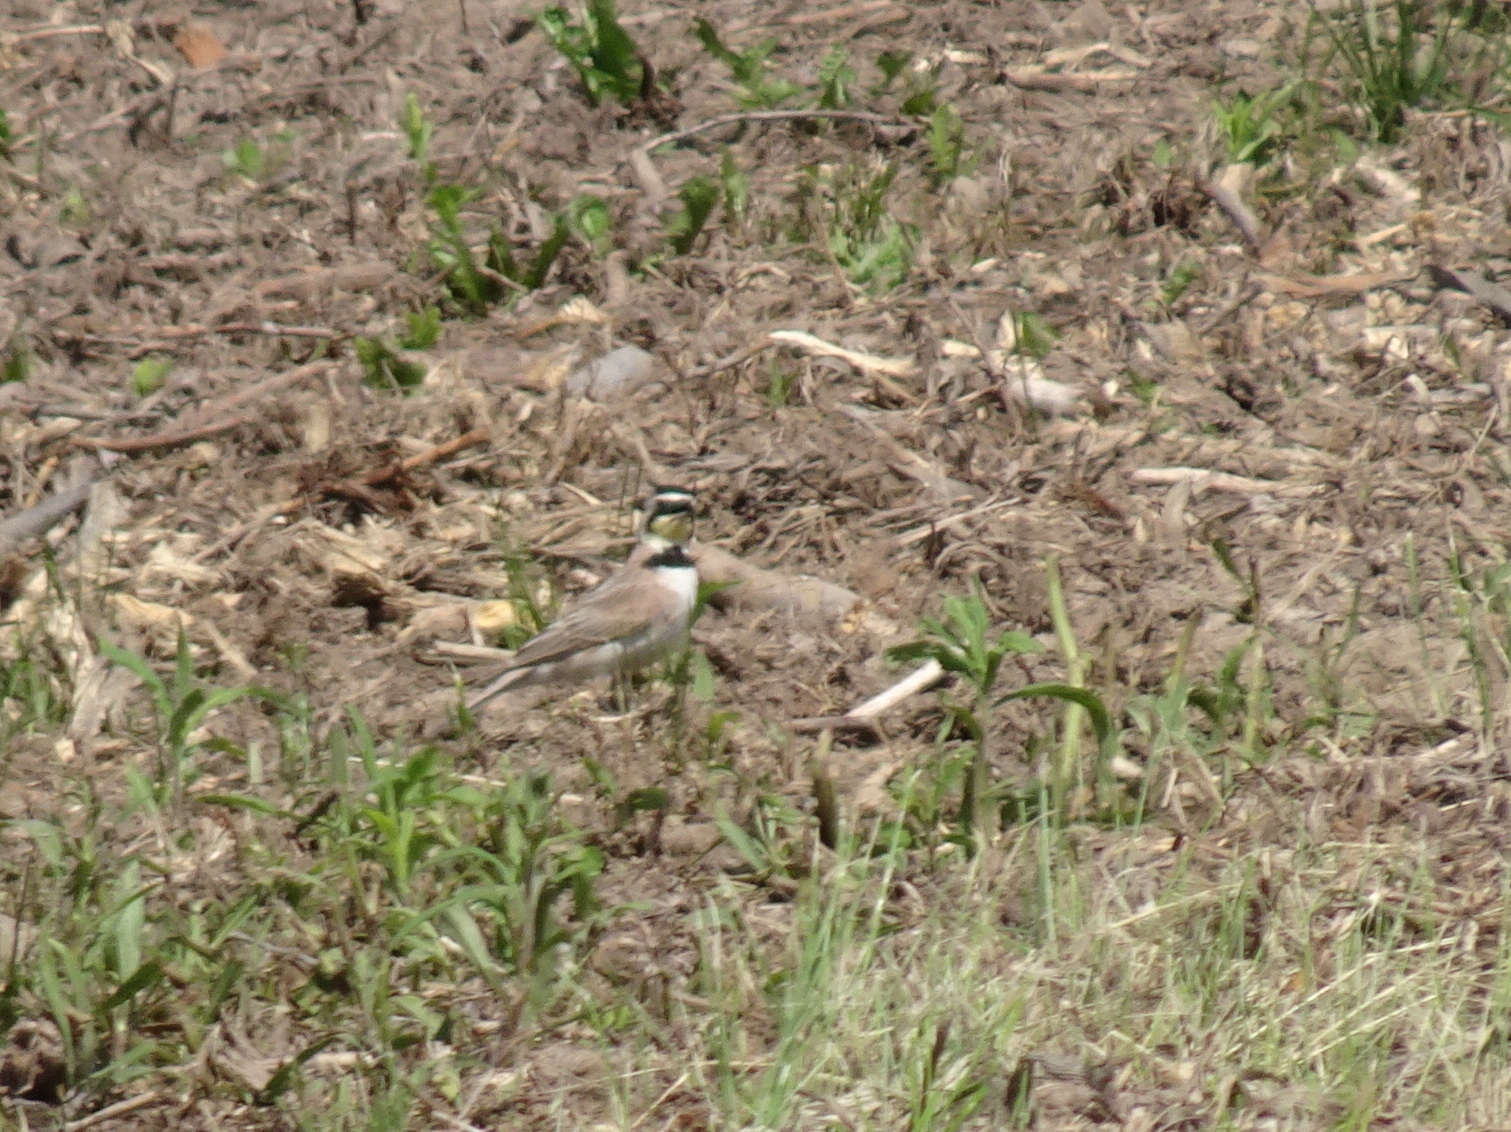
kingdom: Animalia
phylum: Chordata
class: Aves
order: Passeriformes
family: Alaudidae
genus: Eremophila
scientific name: Eremophila alpestris
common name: Horned lark
